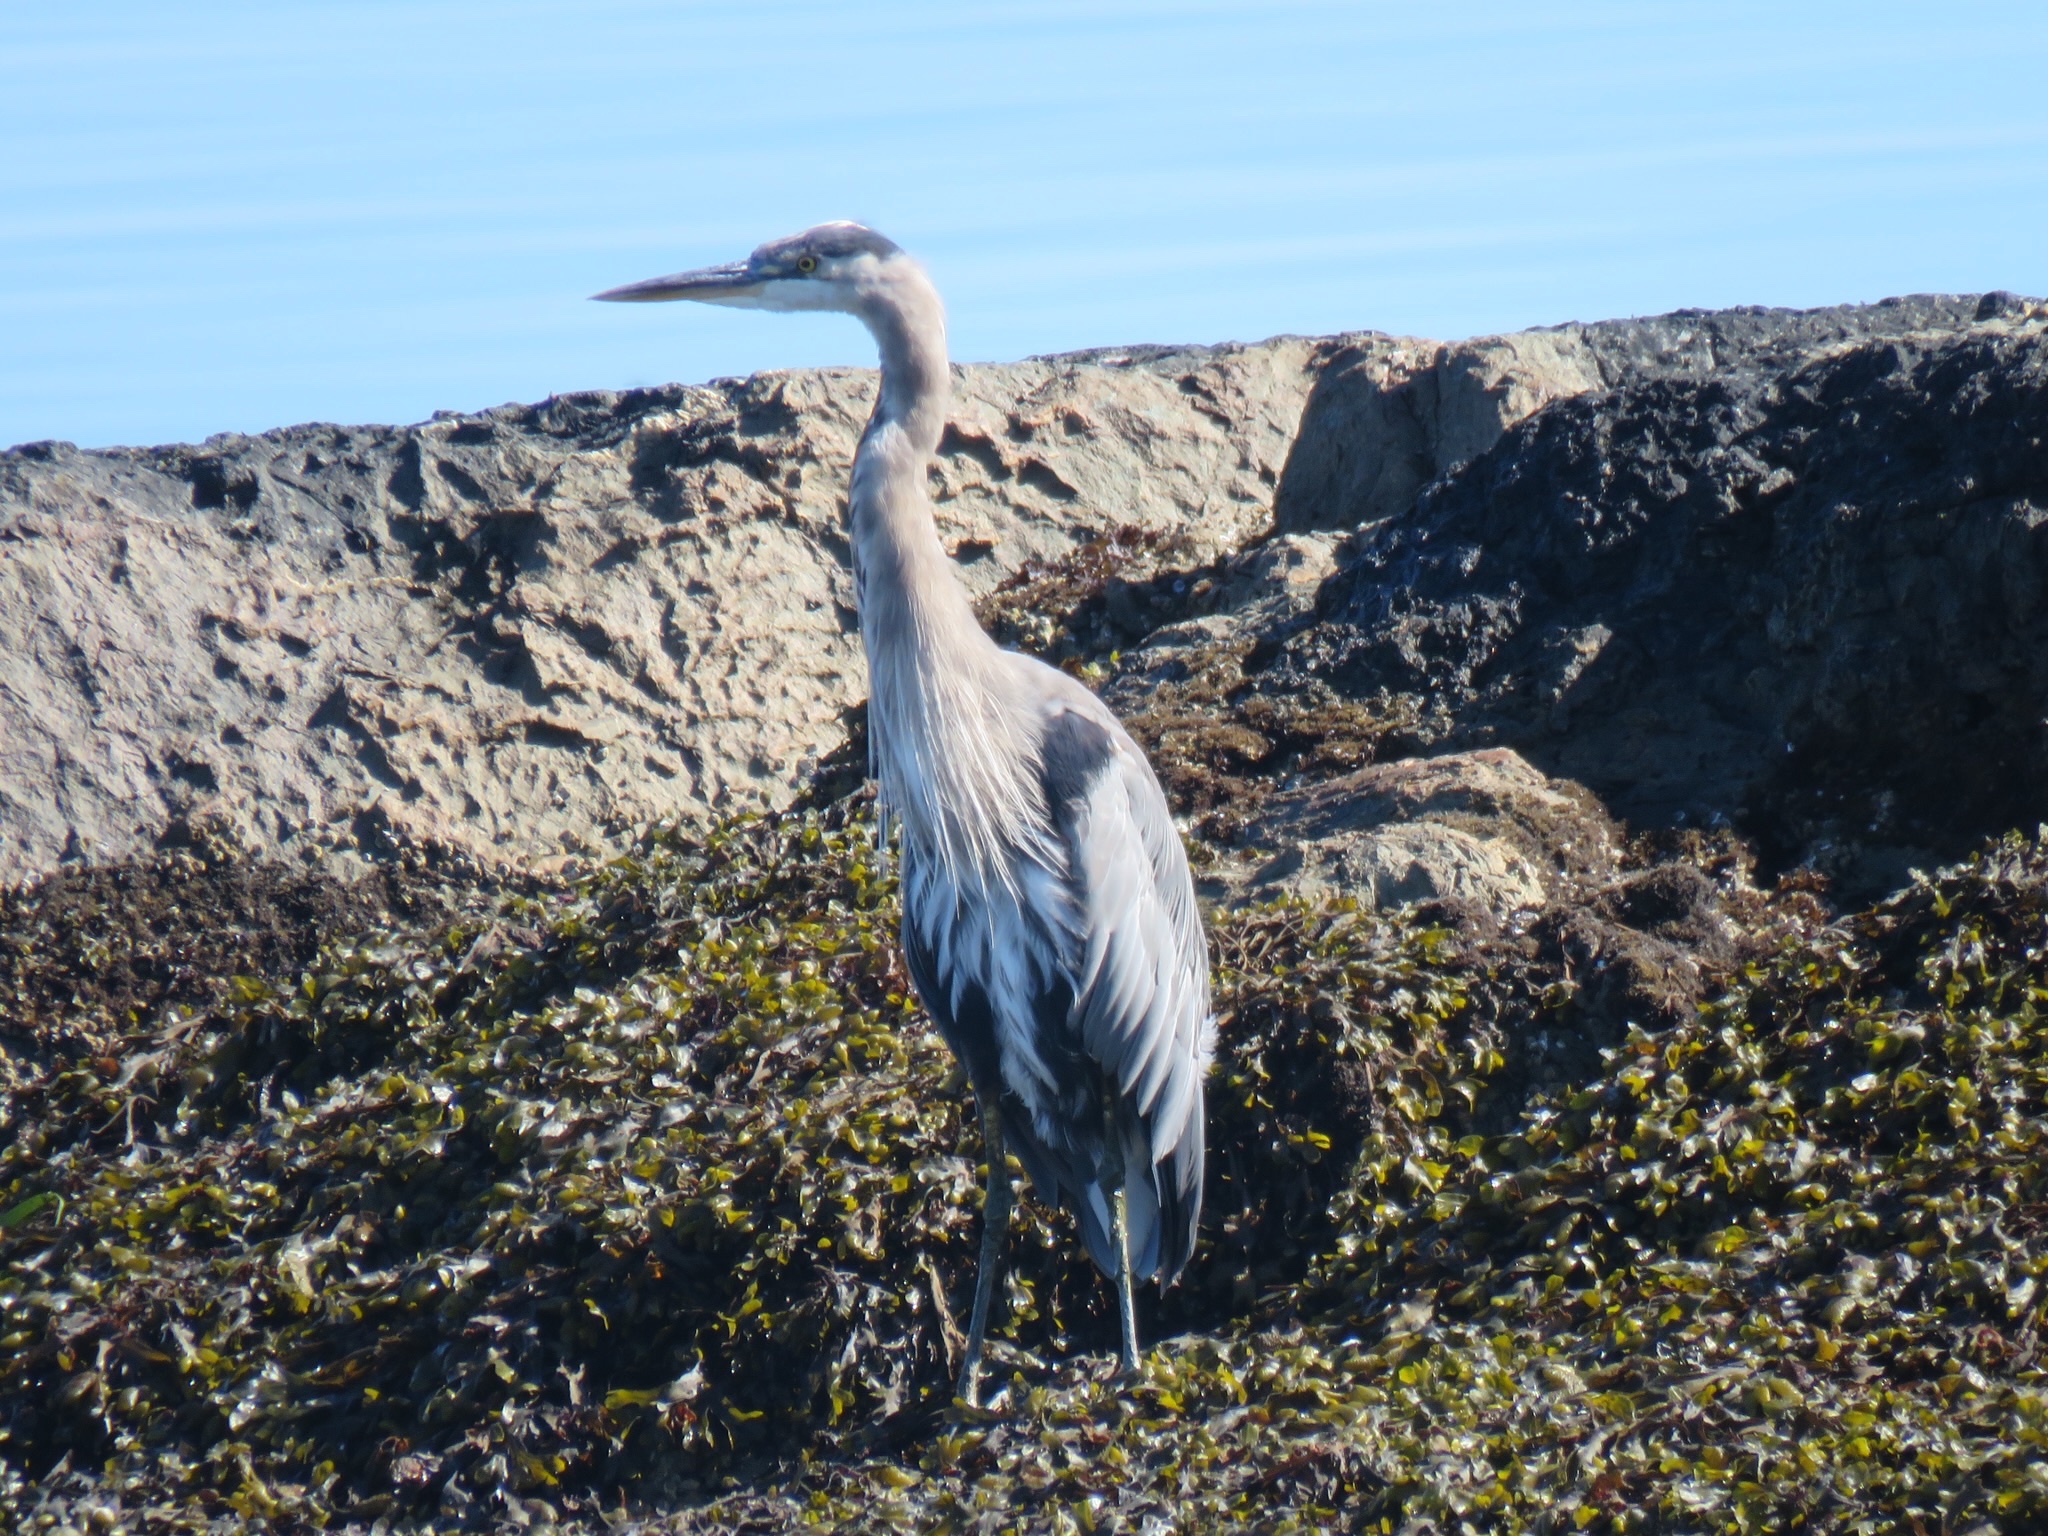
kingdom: Animalia
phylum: Chordata
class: Aves
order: Pelecaniformes
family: Ardeidae
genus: Ardea
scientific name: Ardea herodias
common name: Great blue heron
